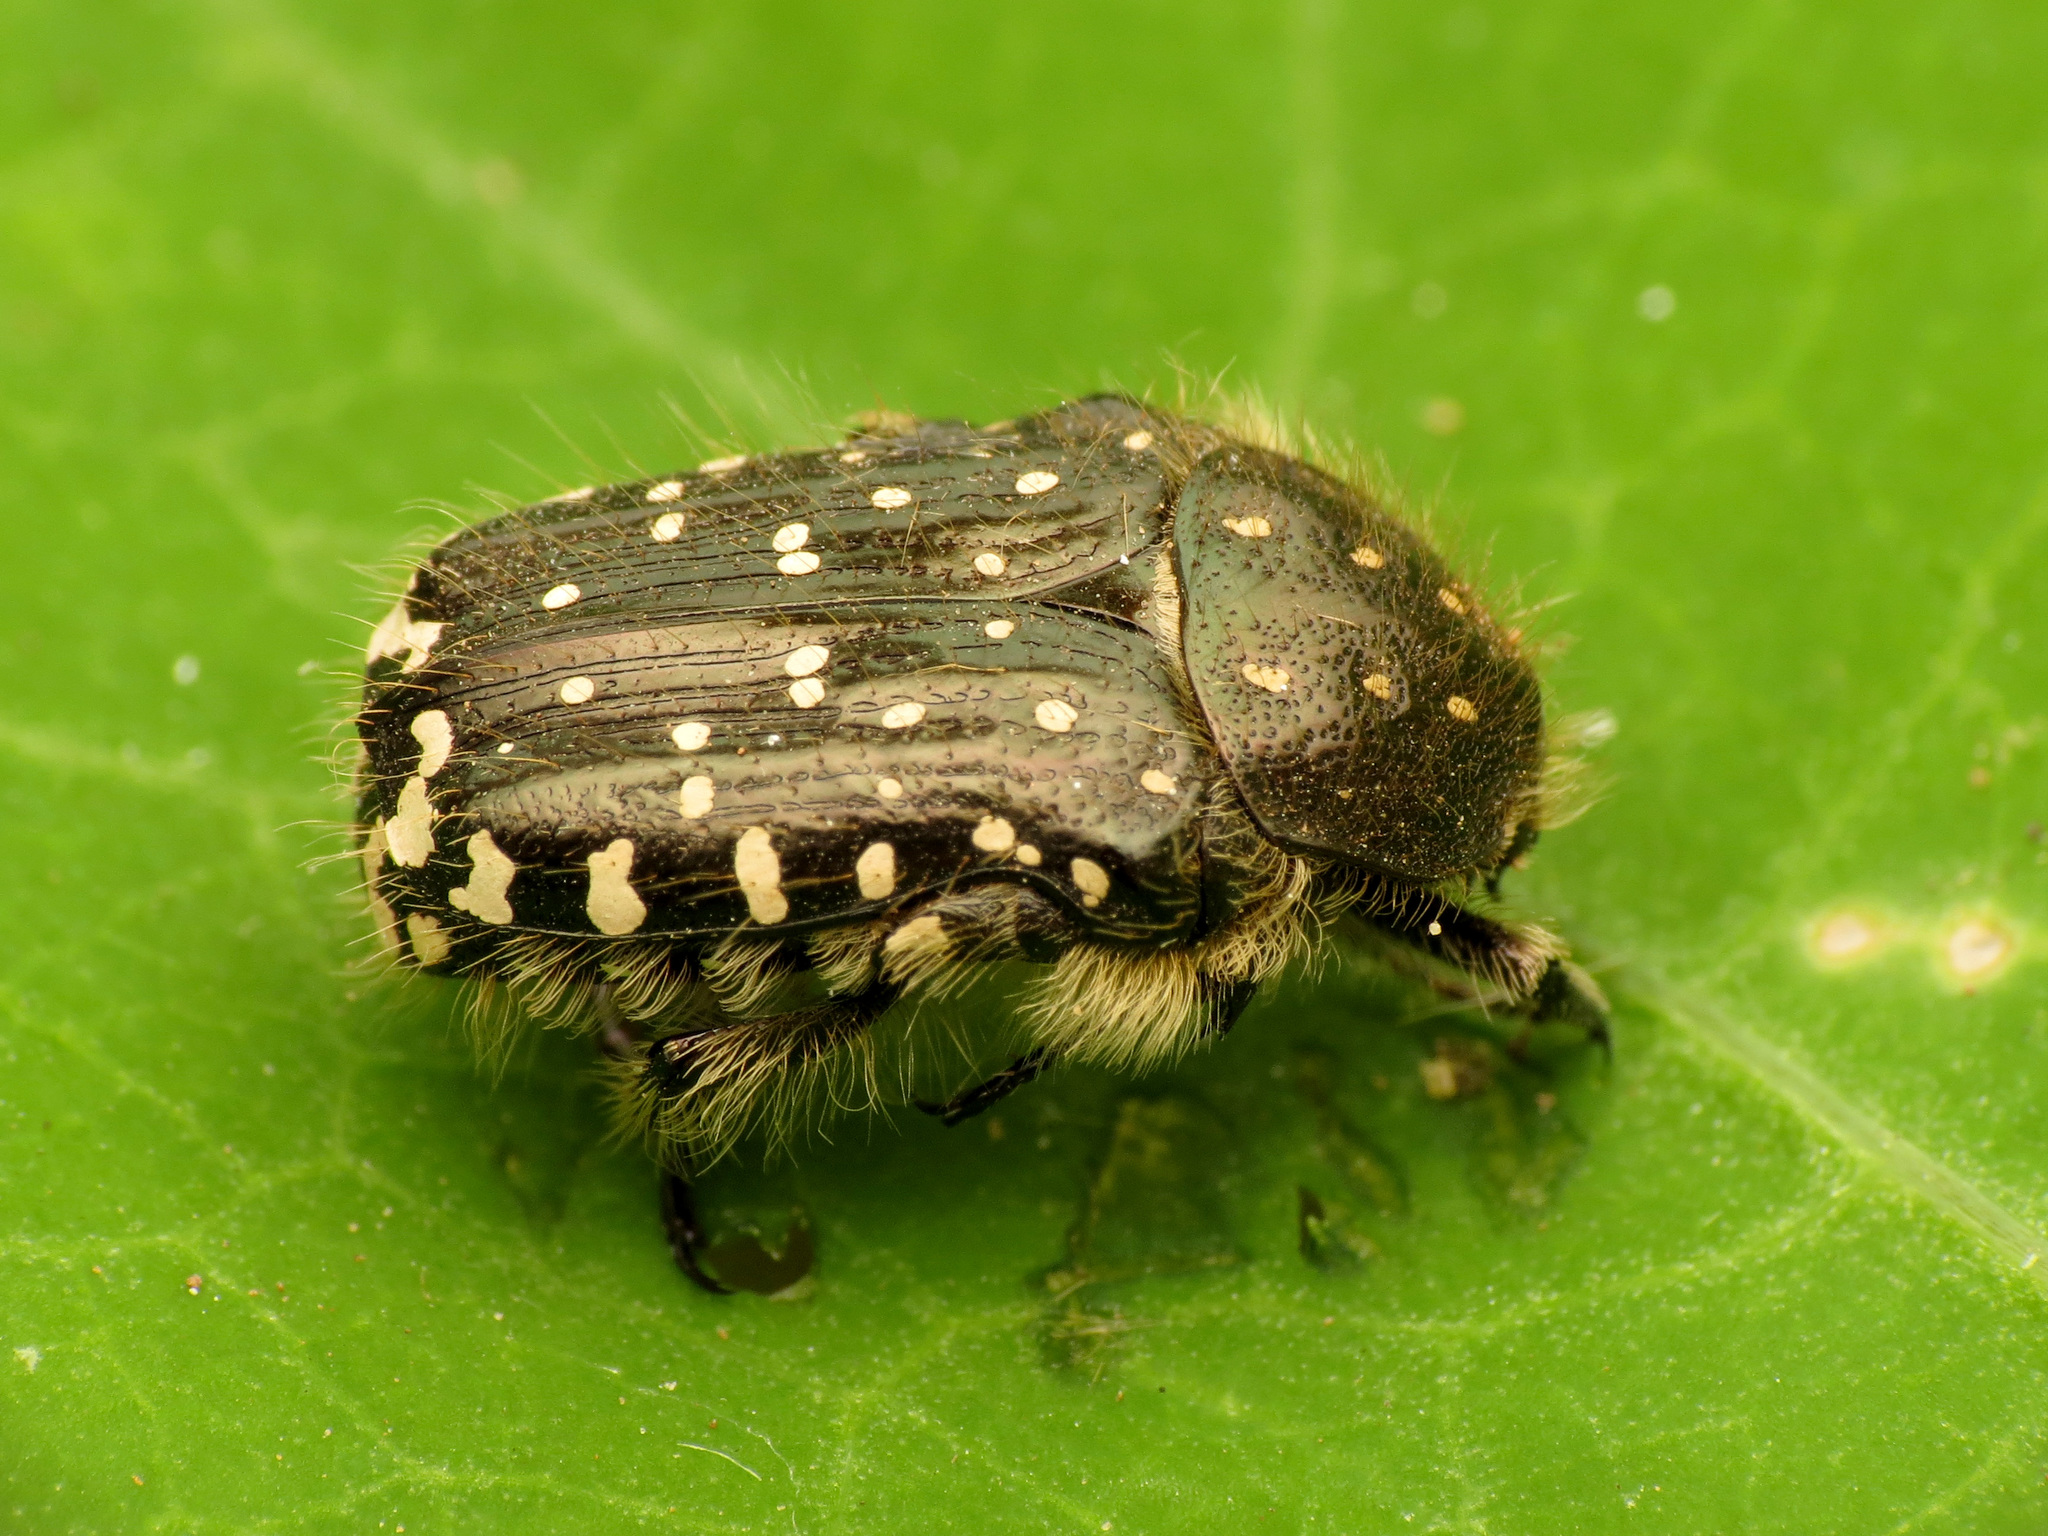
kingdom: Animalia
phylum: Arthropoda
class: Insecta
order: Coleoptera
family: Scarabaeidae
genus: Oxythyrea
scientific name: Oxythyrea funesta
